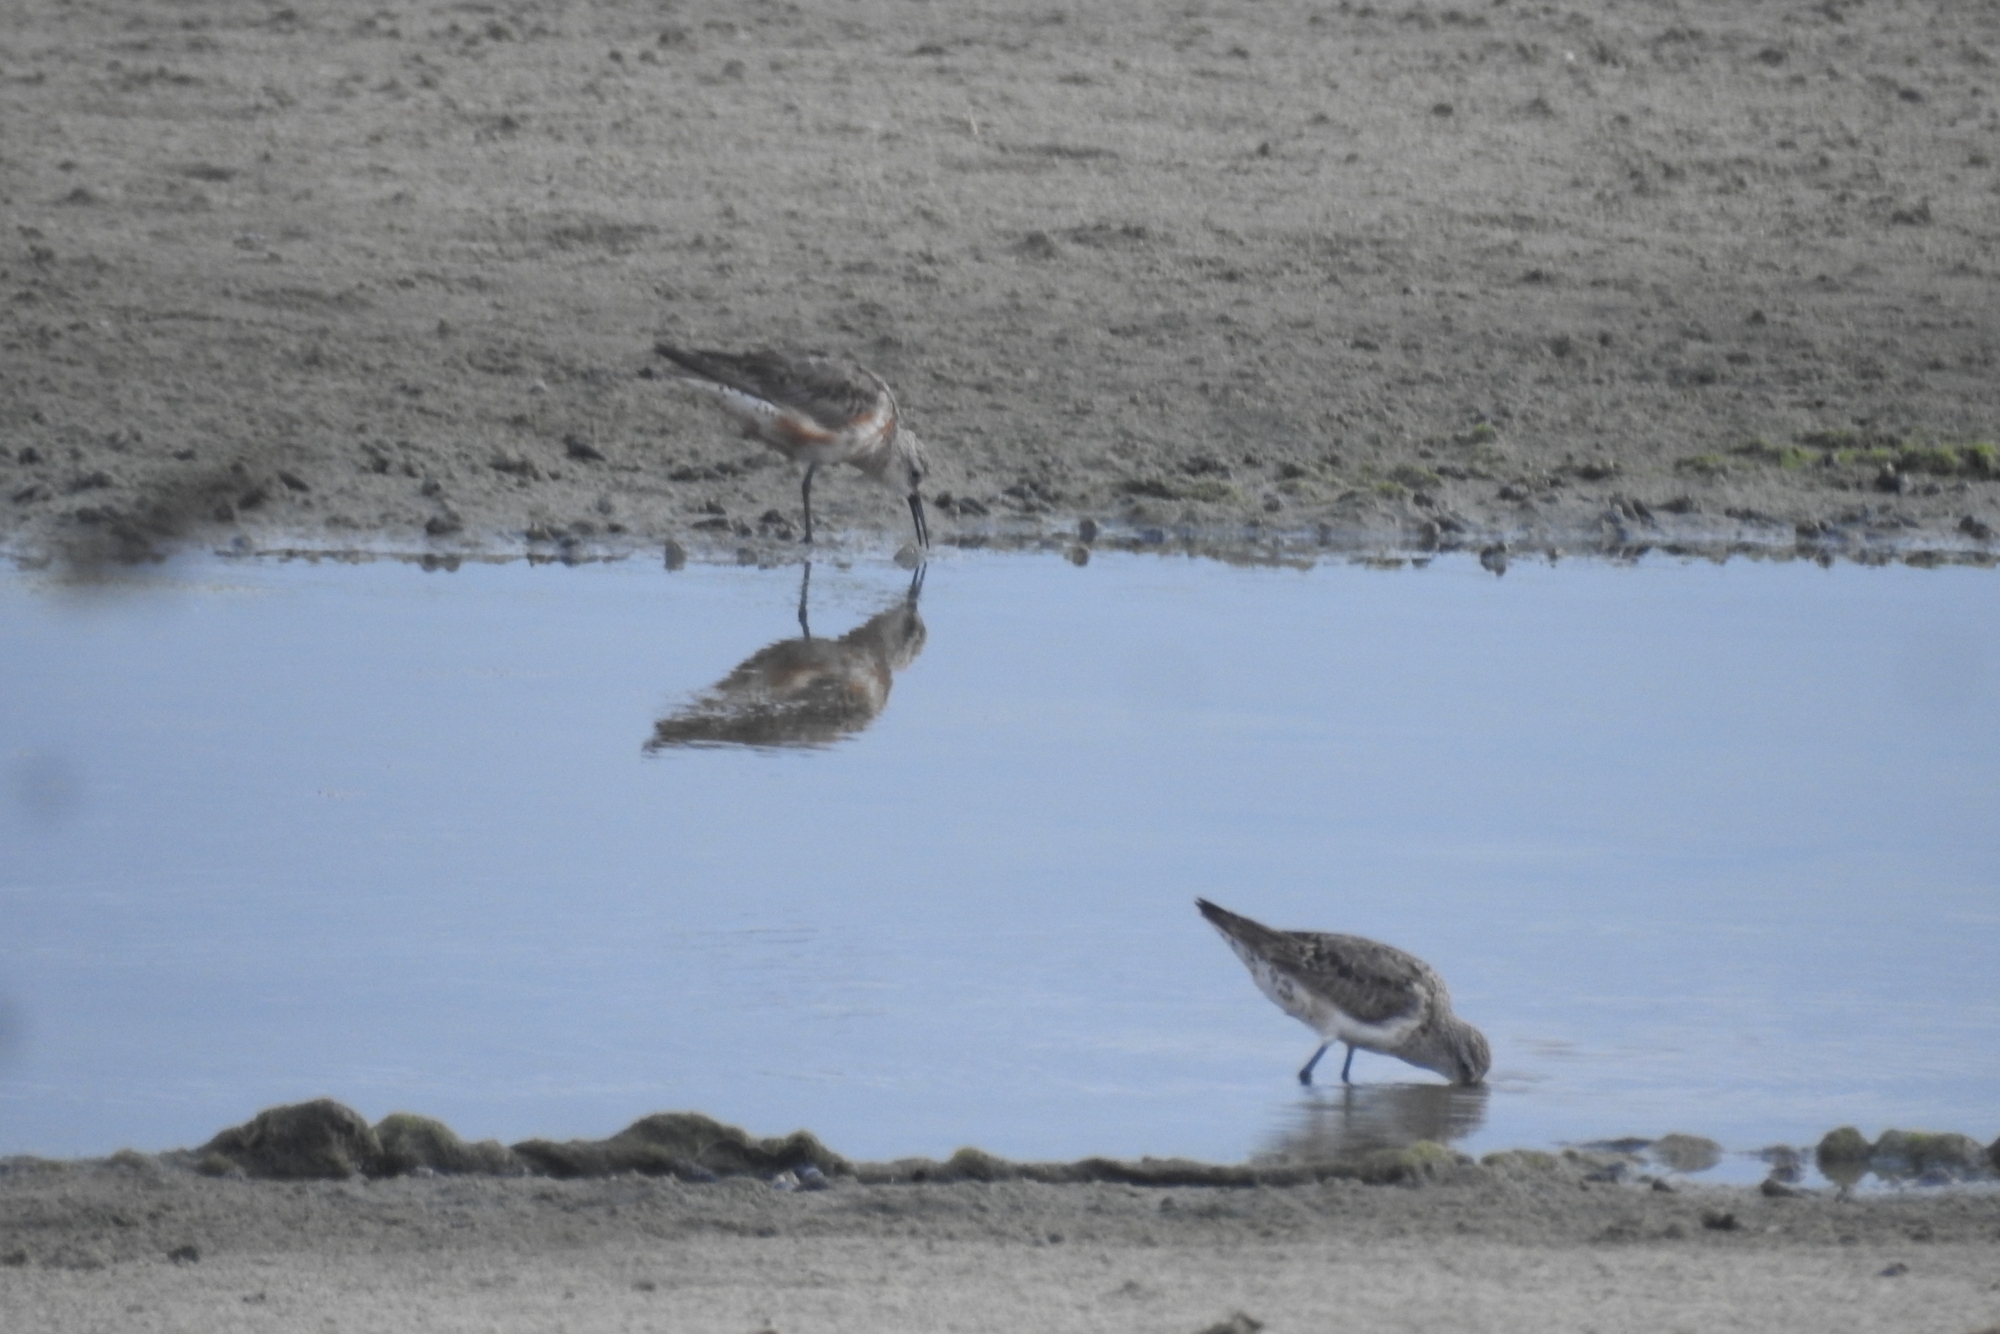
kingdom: Animalia
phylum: Chordata
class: Aves
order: Charadriiformes
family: Scolopacidae
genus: Calidris
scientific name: Calidris ferruginea
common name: Curlew sandpiper
